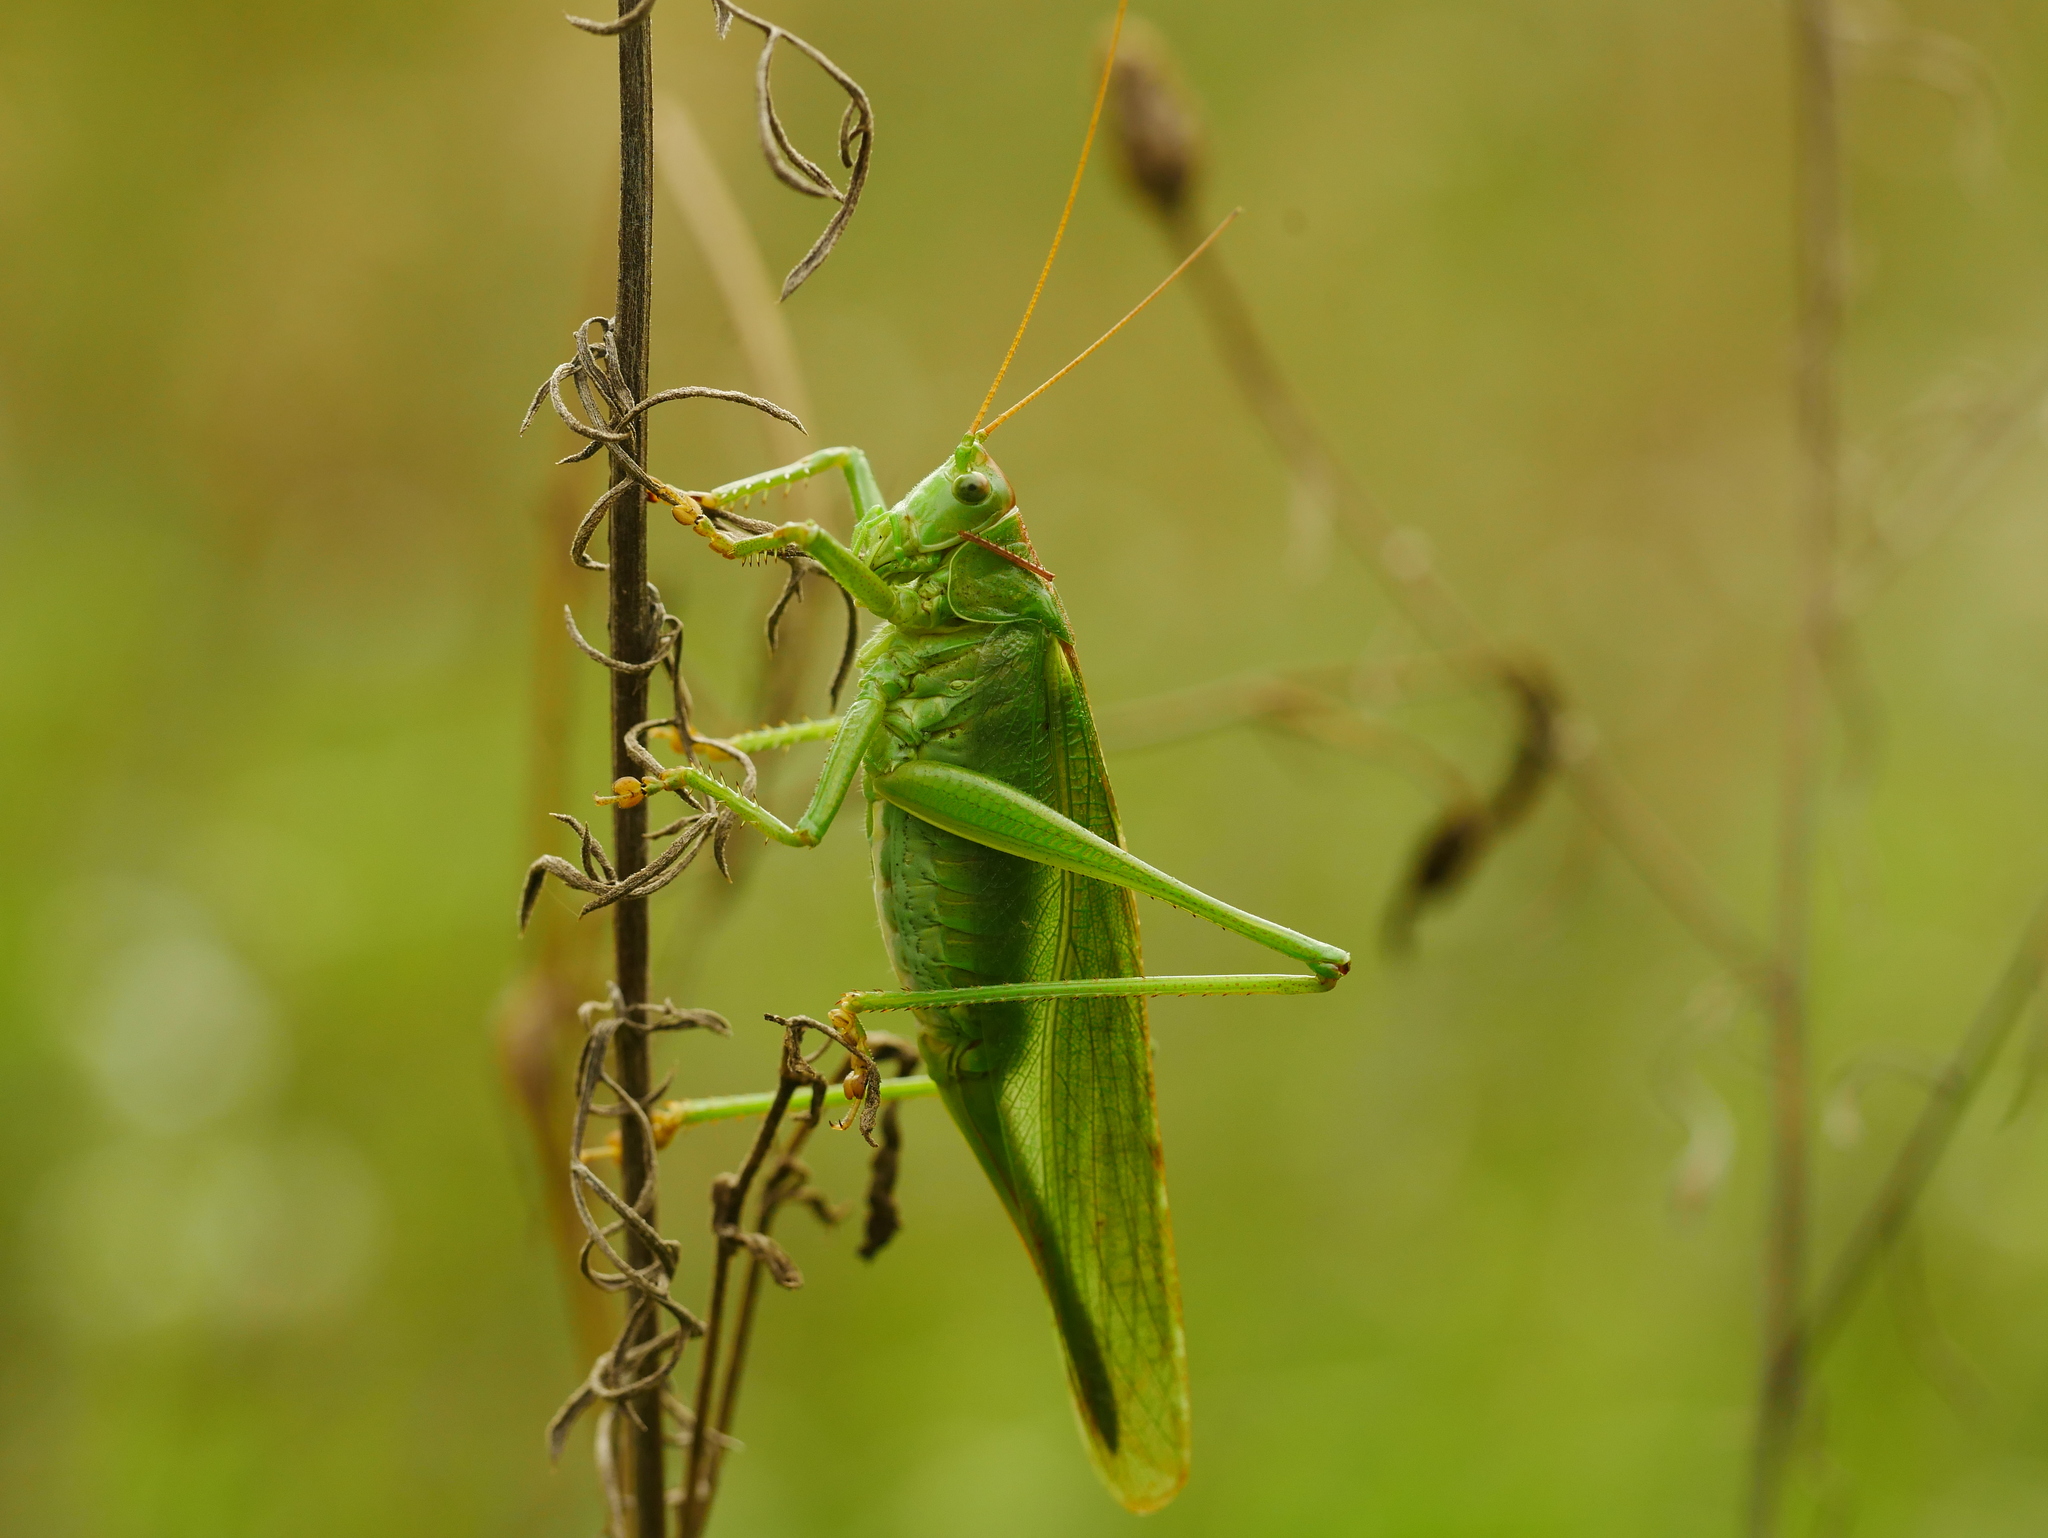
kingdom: Animalia
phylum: Arthropoda
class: Insecta
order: Orthoptera
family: Tettigoniidae
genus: Tettigonia
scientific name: Tettigonia viridissima
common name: Great green bush-cricket
